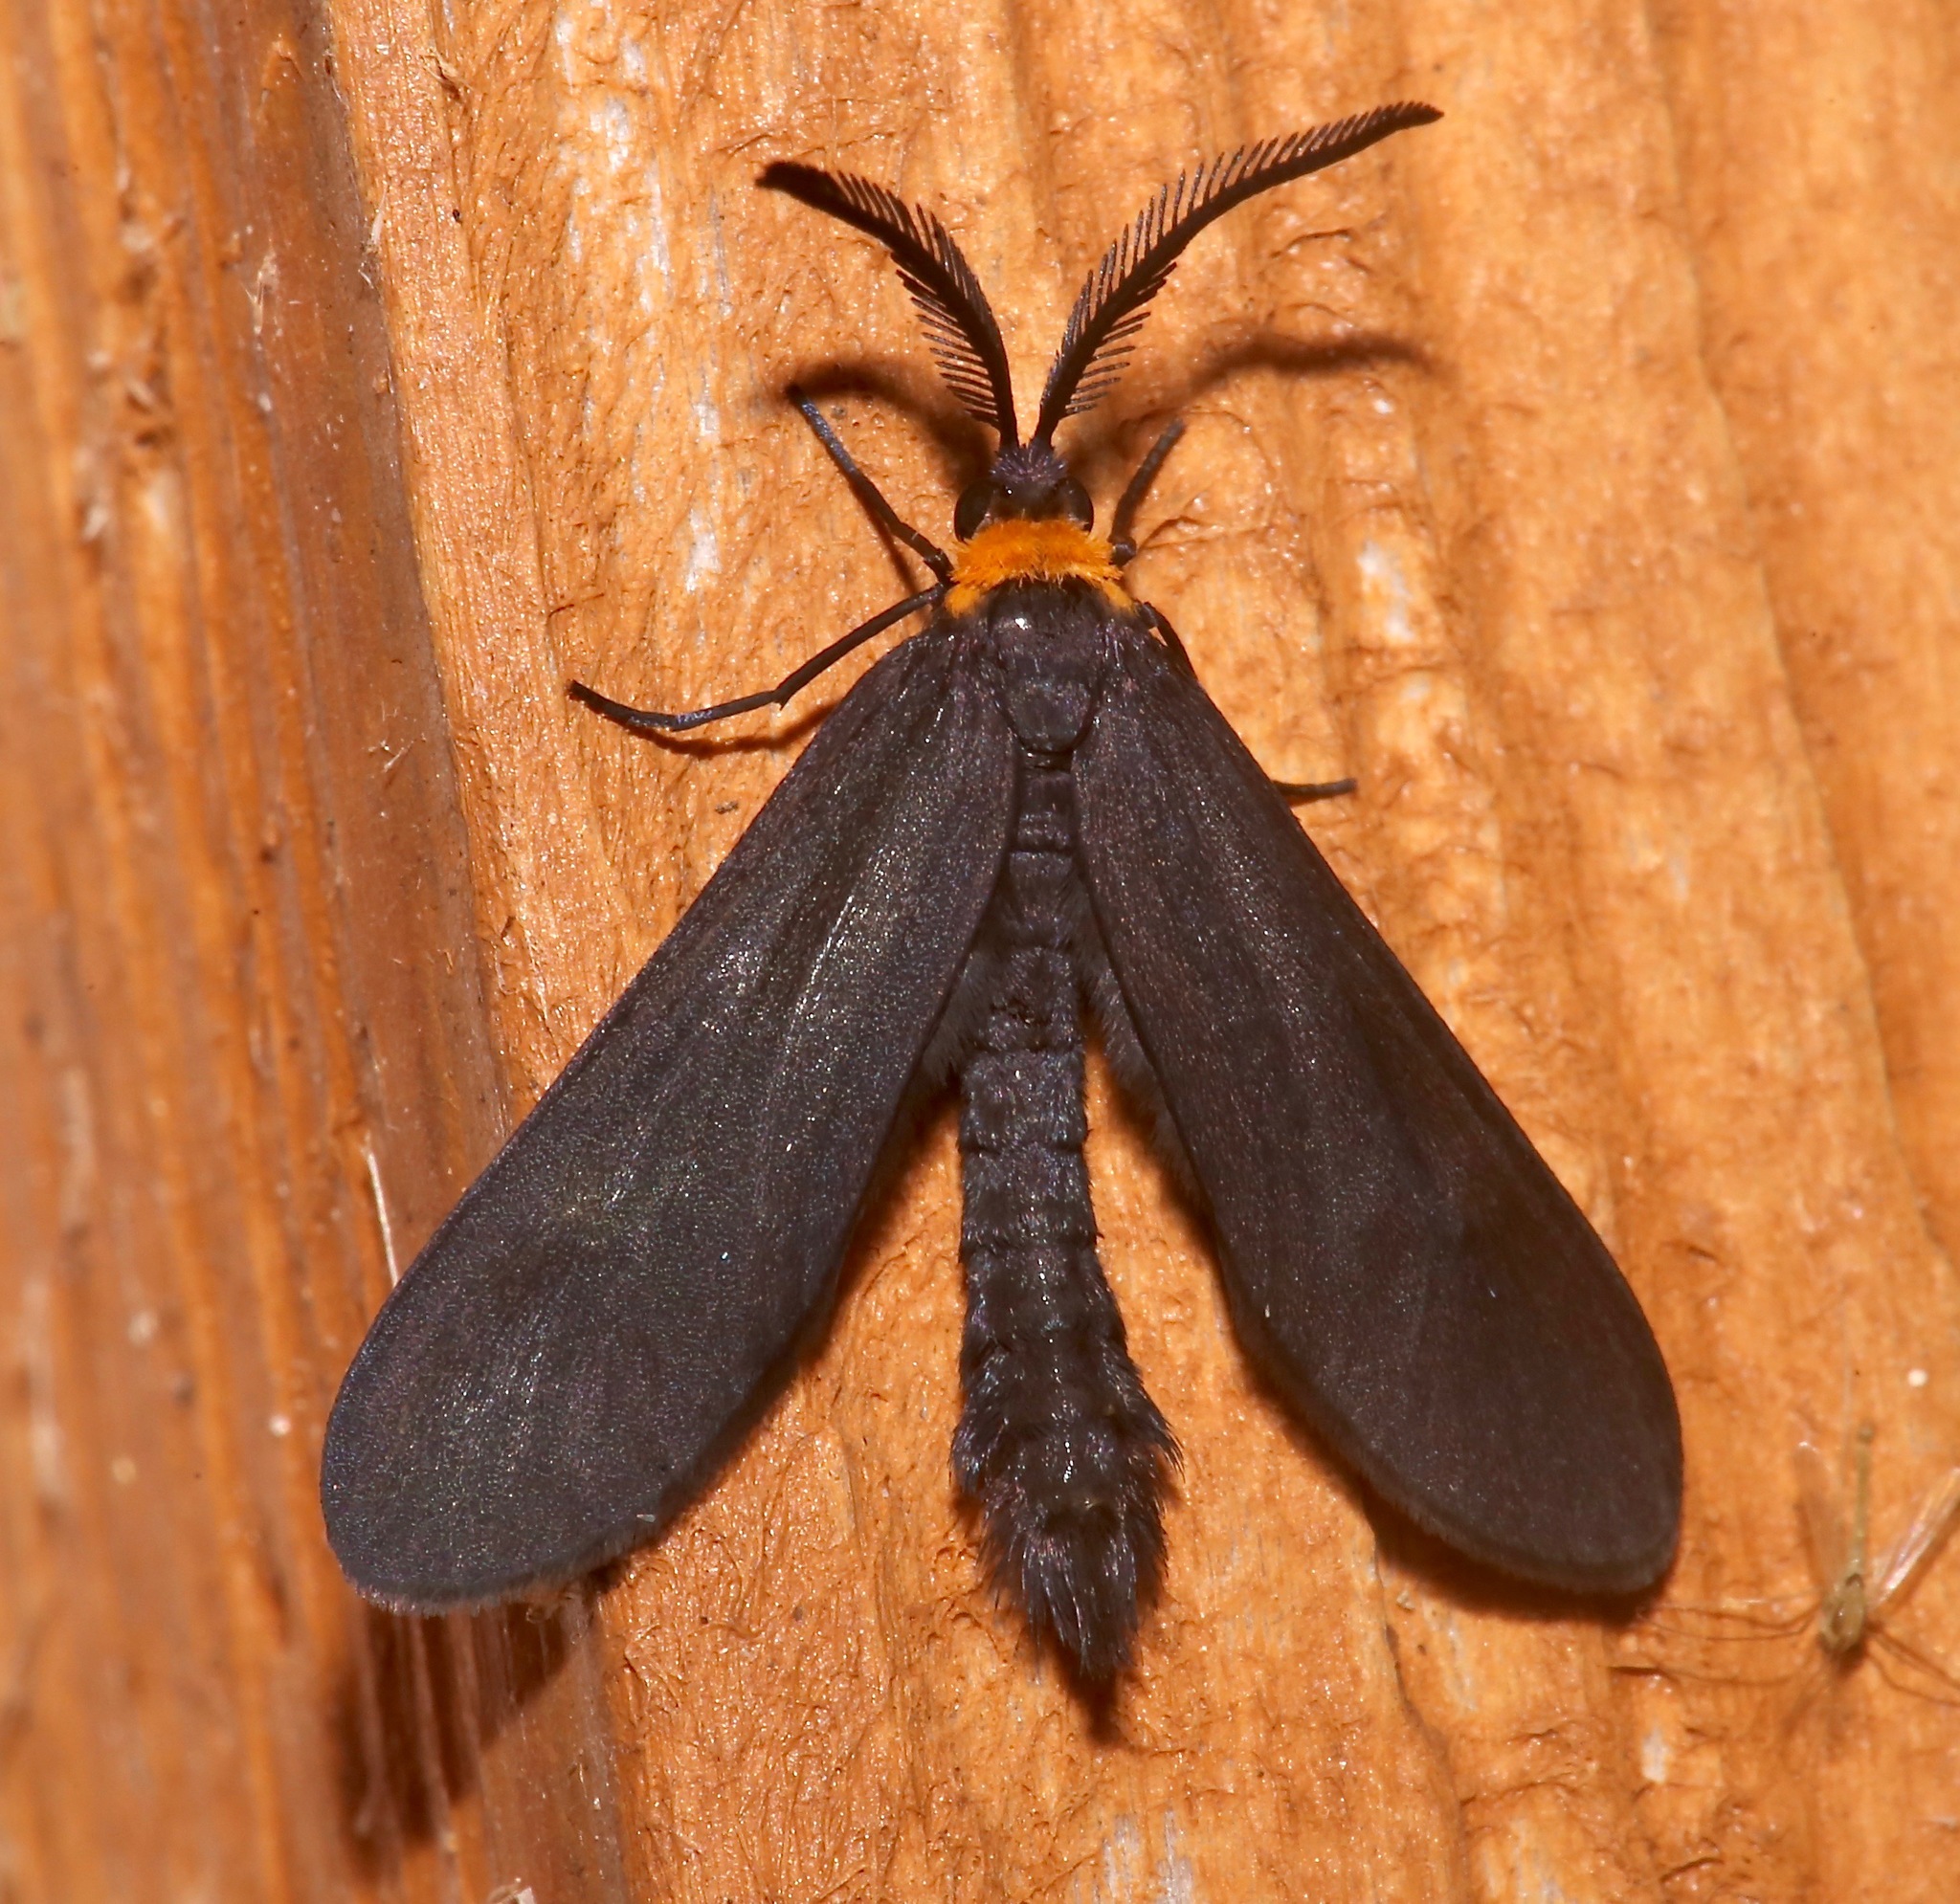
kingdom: Animalia
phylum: Arthropoda
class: Insecta
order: Lepidoptera
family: Zygaenidae
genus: Harrisina
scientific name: Harrisina americana
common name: Grapeleaf skeletonizer moth
